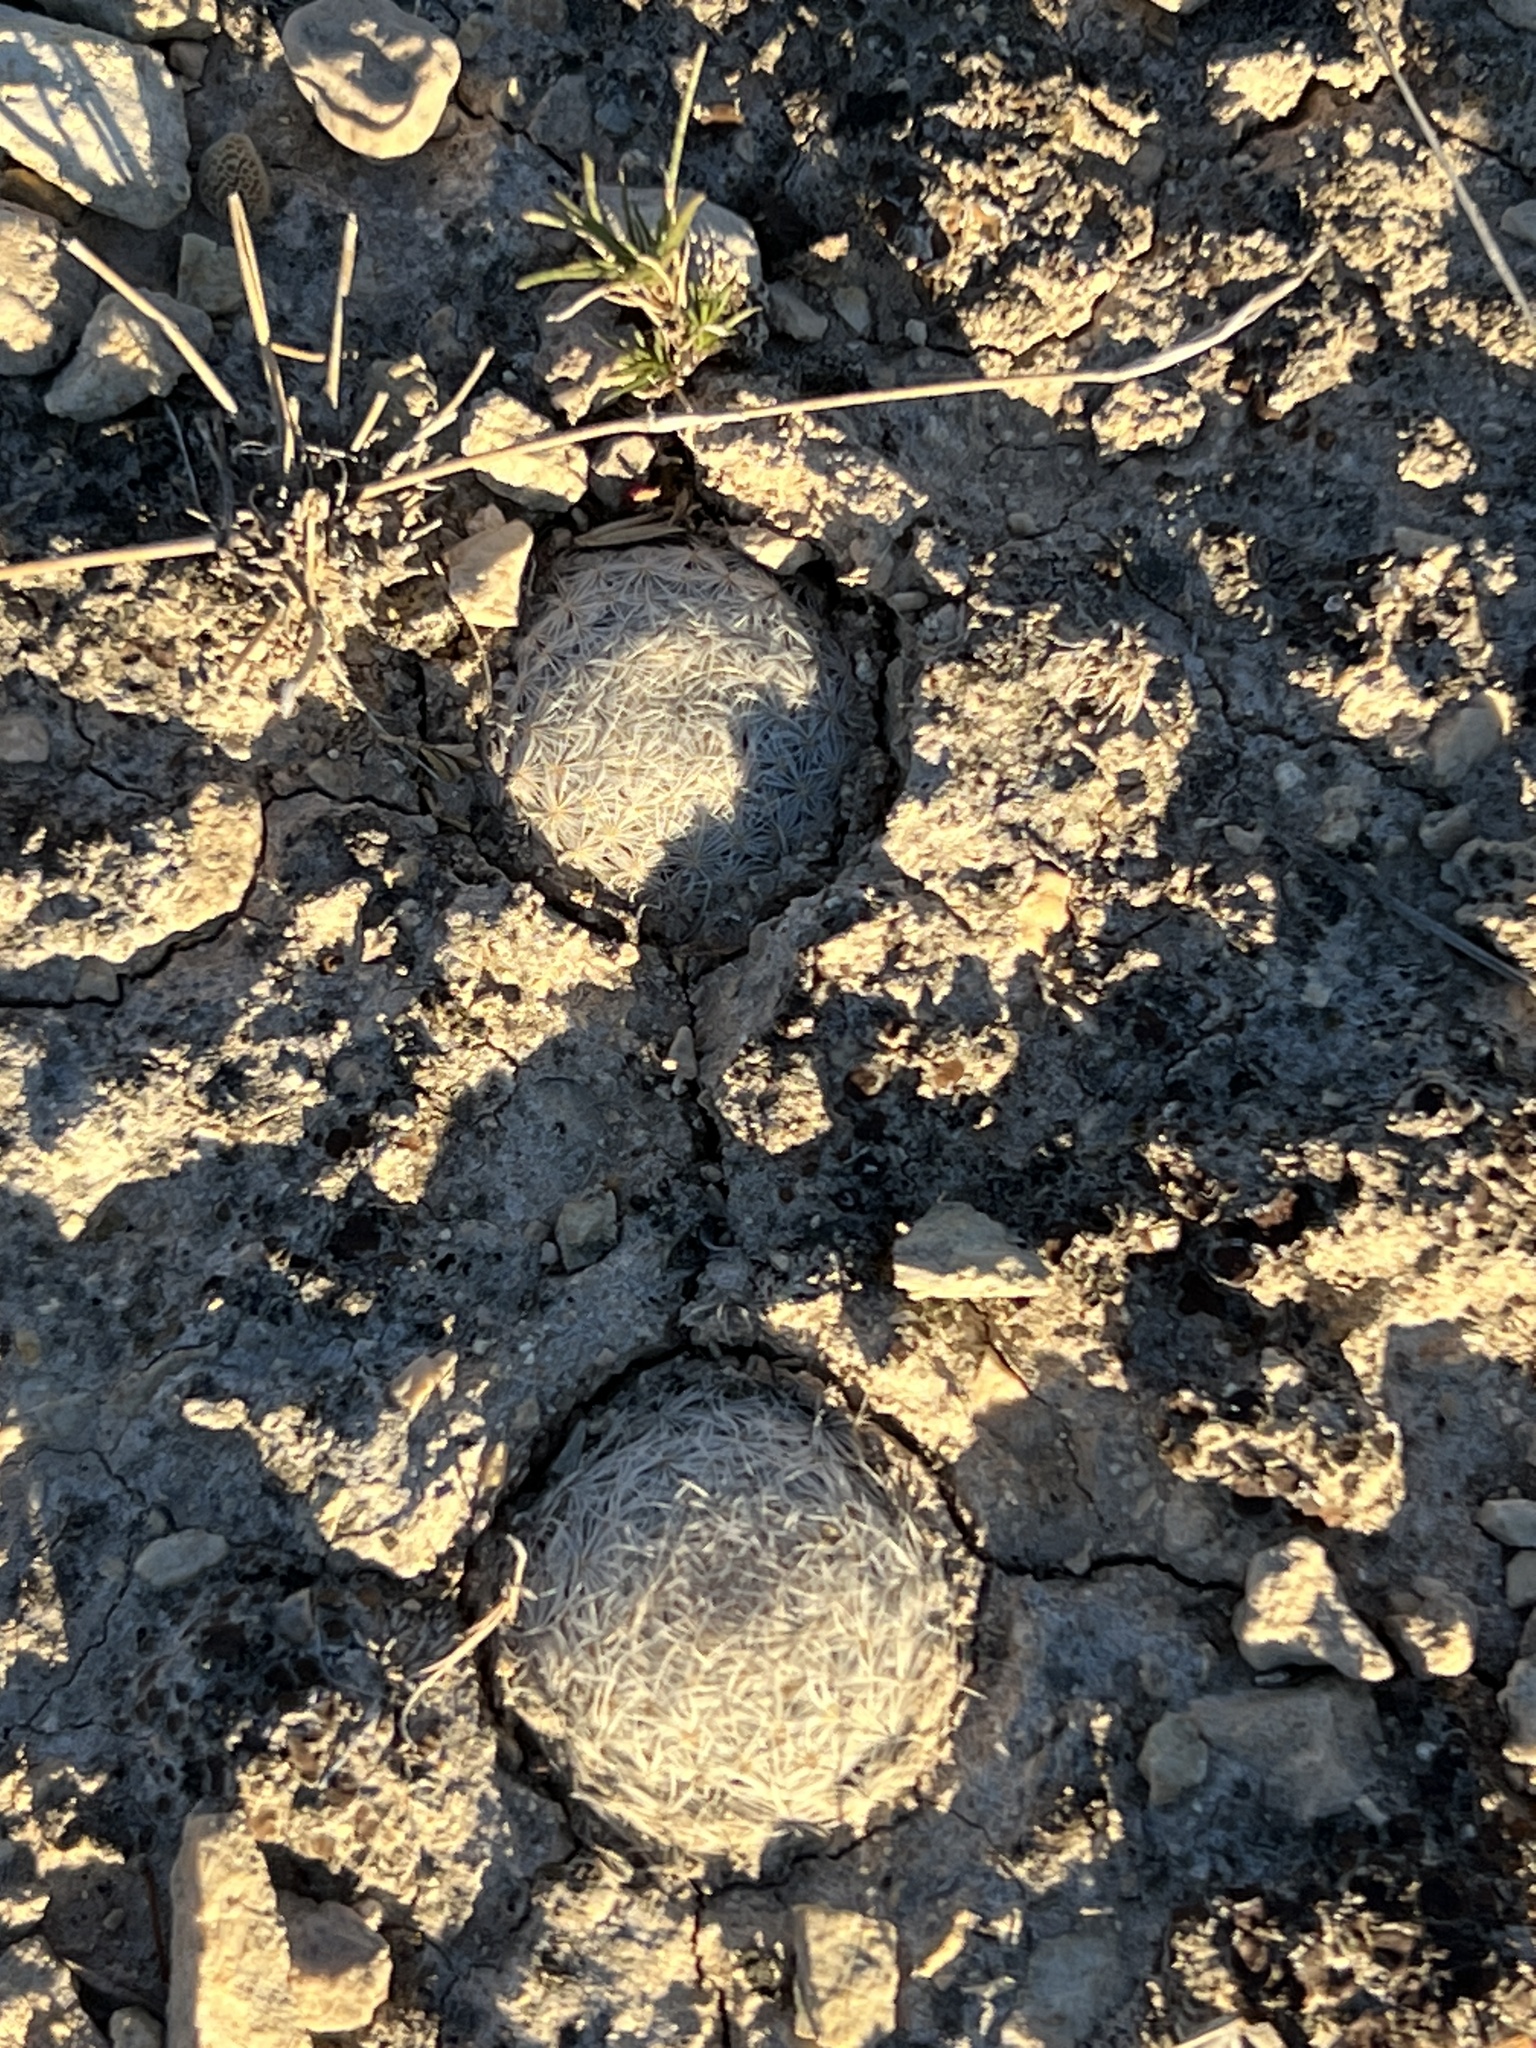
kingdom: Plantae
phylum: Tracheophyta
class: Magnoliopsida
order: Caryophyllales
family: Cactaceae
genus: Mammillaria
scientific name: Mammillaria lasiacantha
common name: Lace-spine nipple cactus
